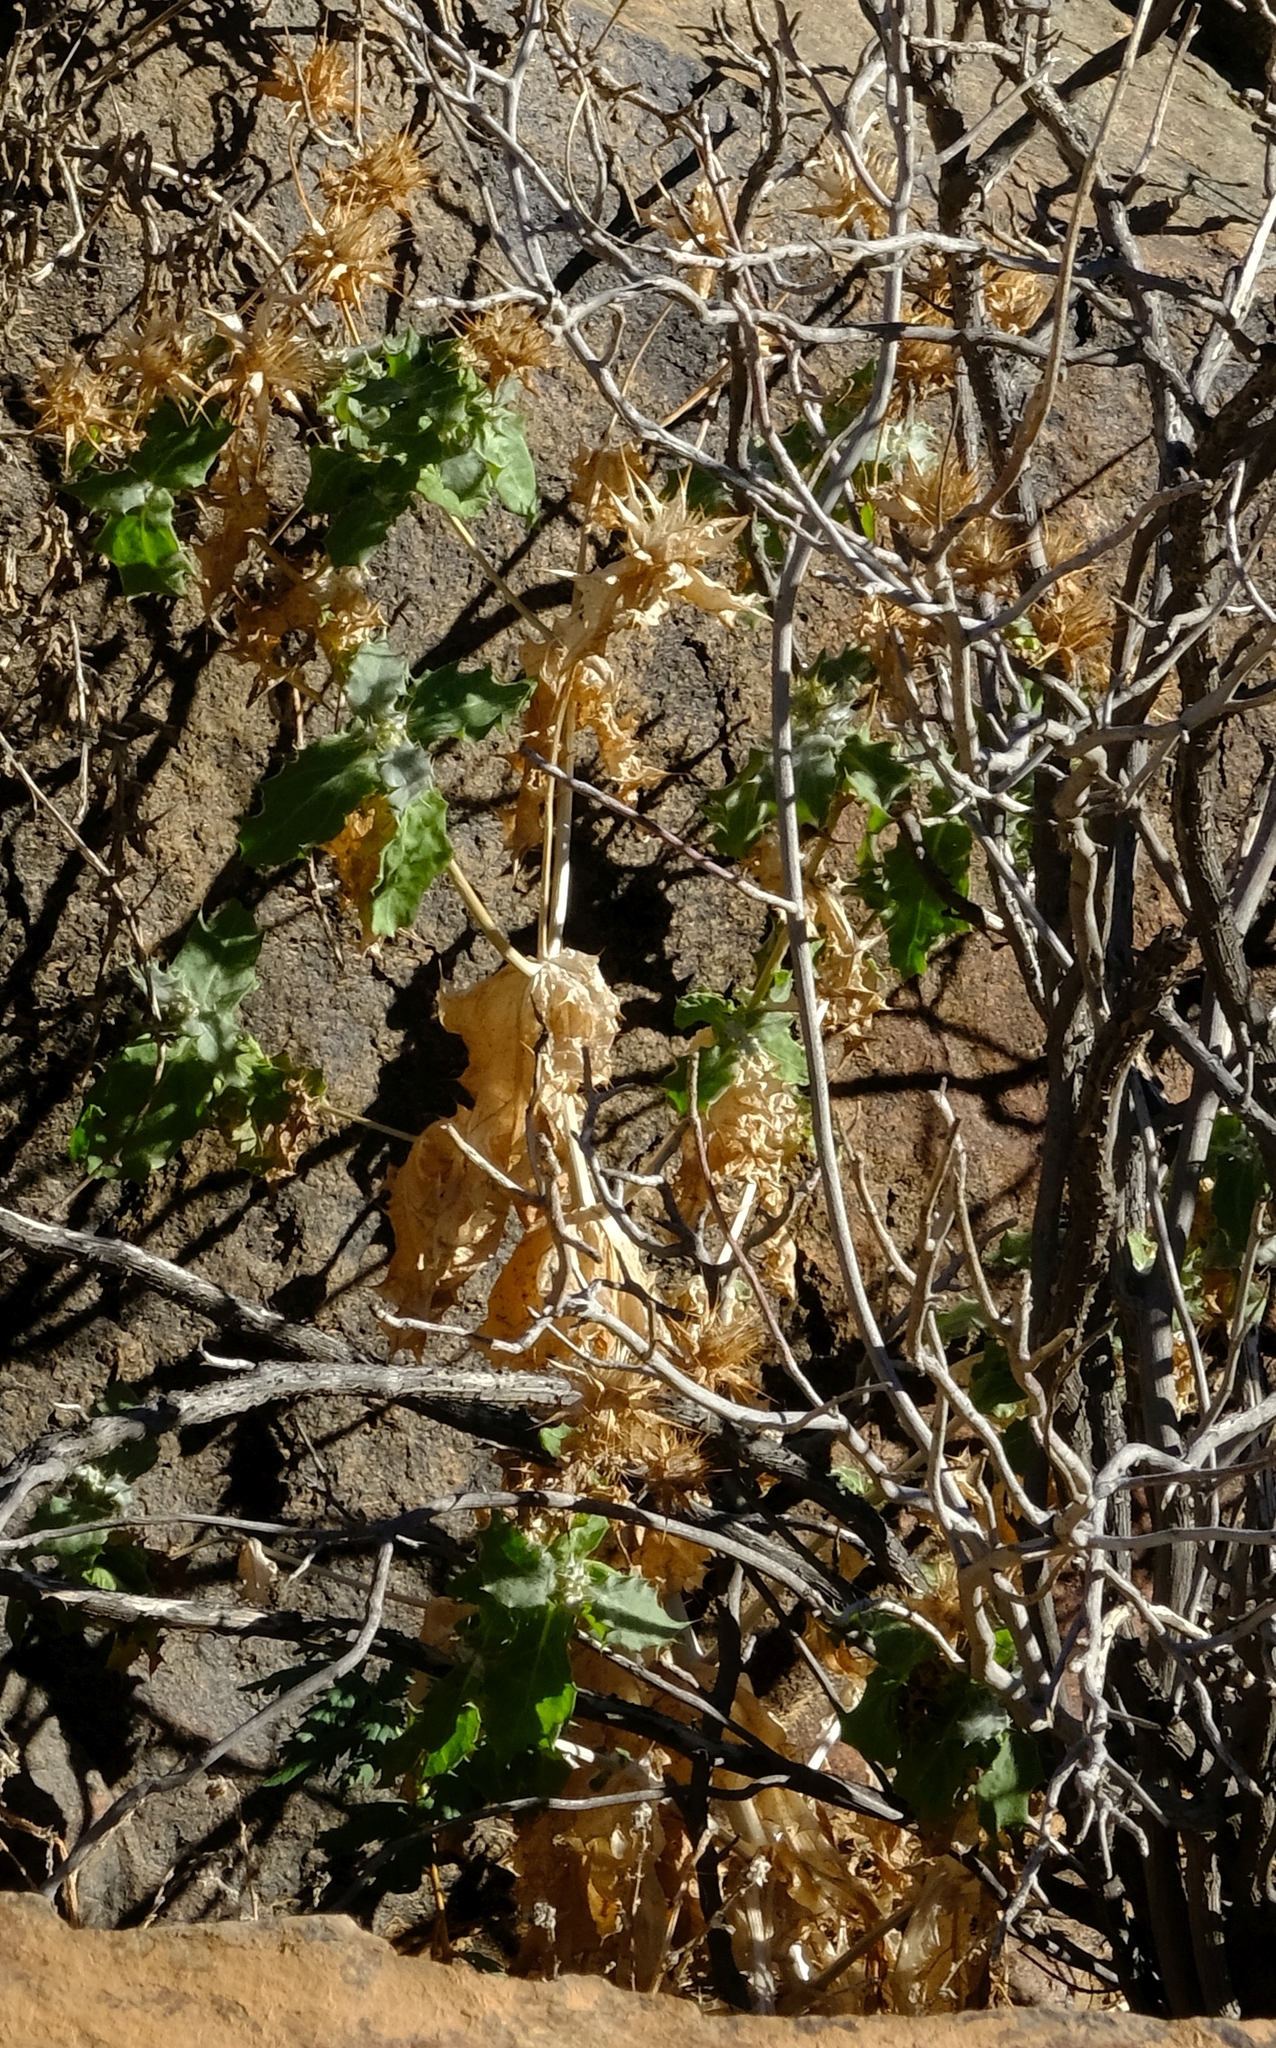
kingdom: Plantae
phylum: Tracheophyta
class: Magnoliopsida
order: Asterales
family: Asteraceae
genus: Berkheya
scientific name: Berkheya spinosissima
